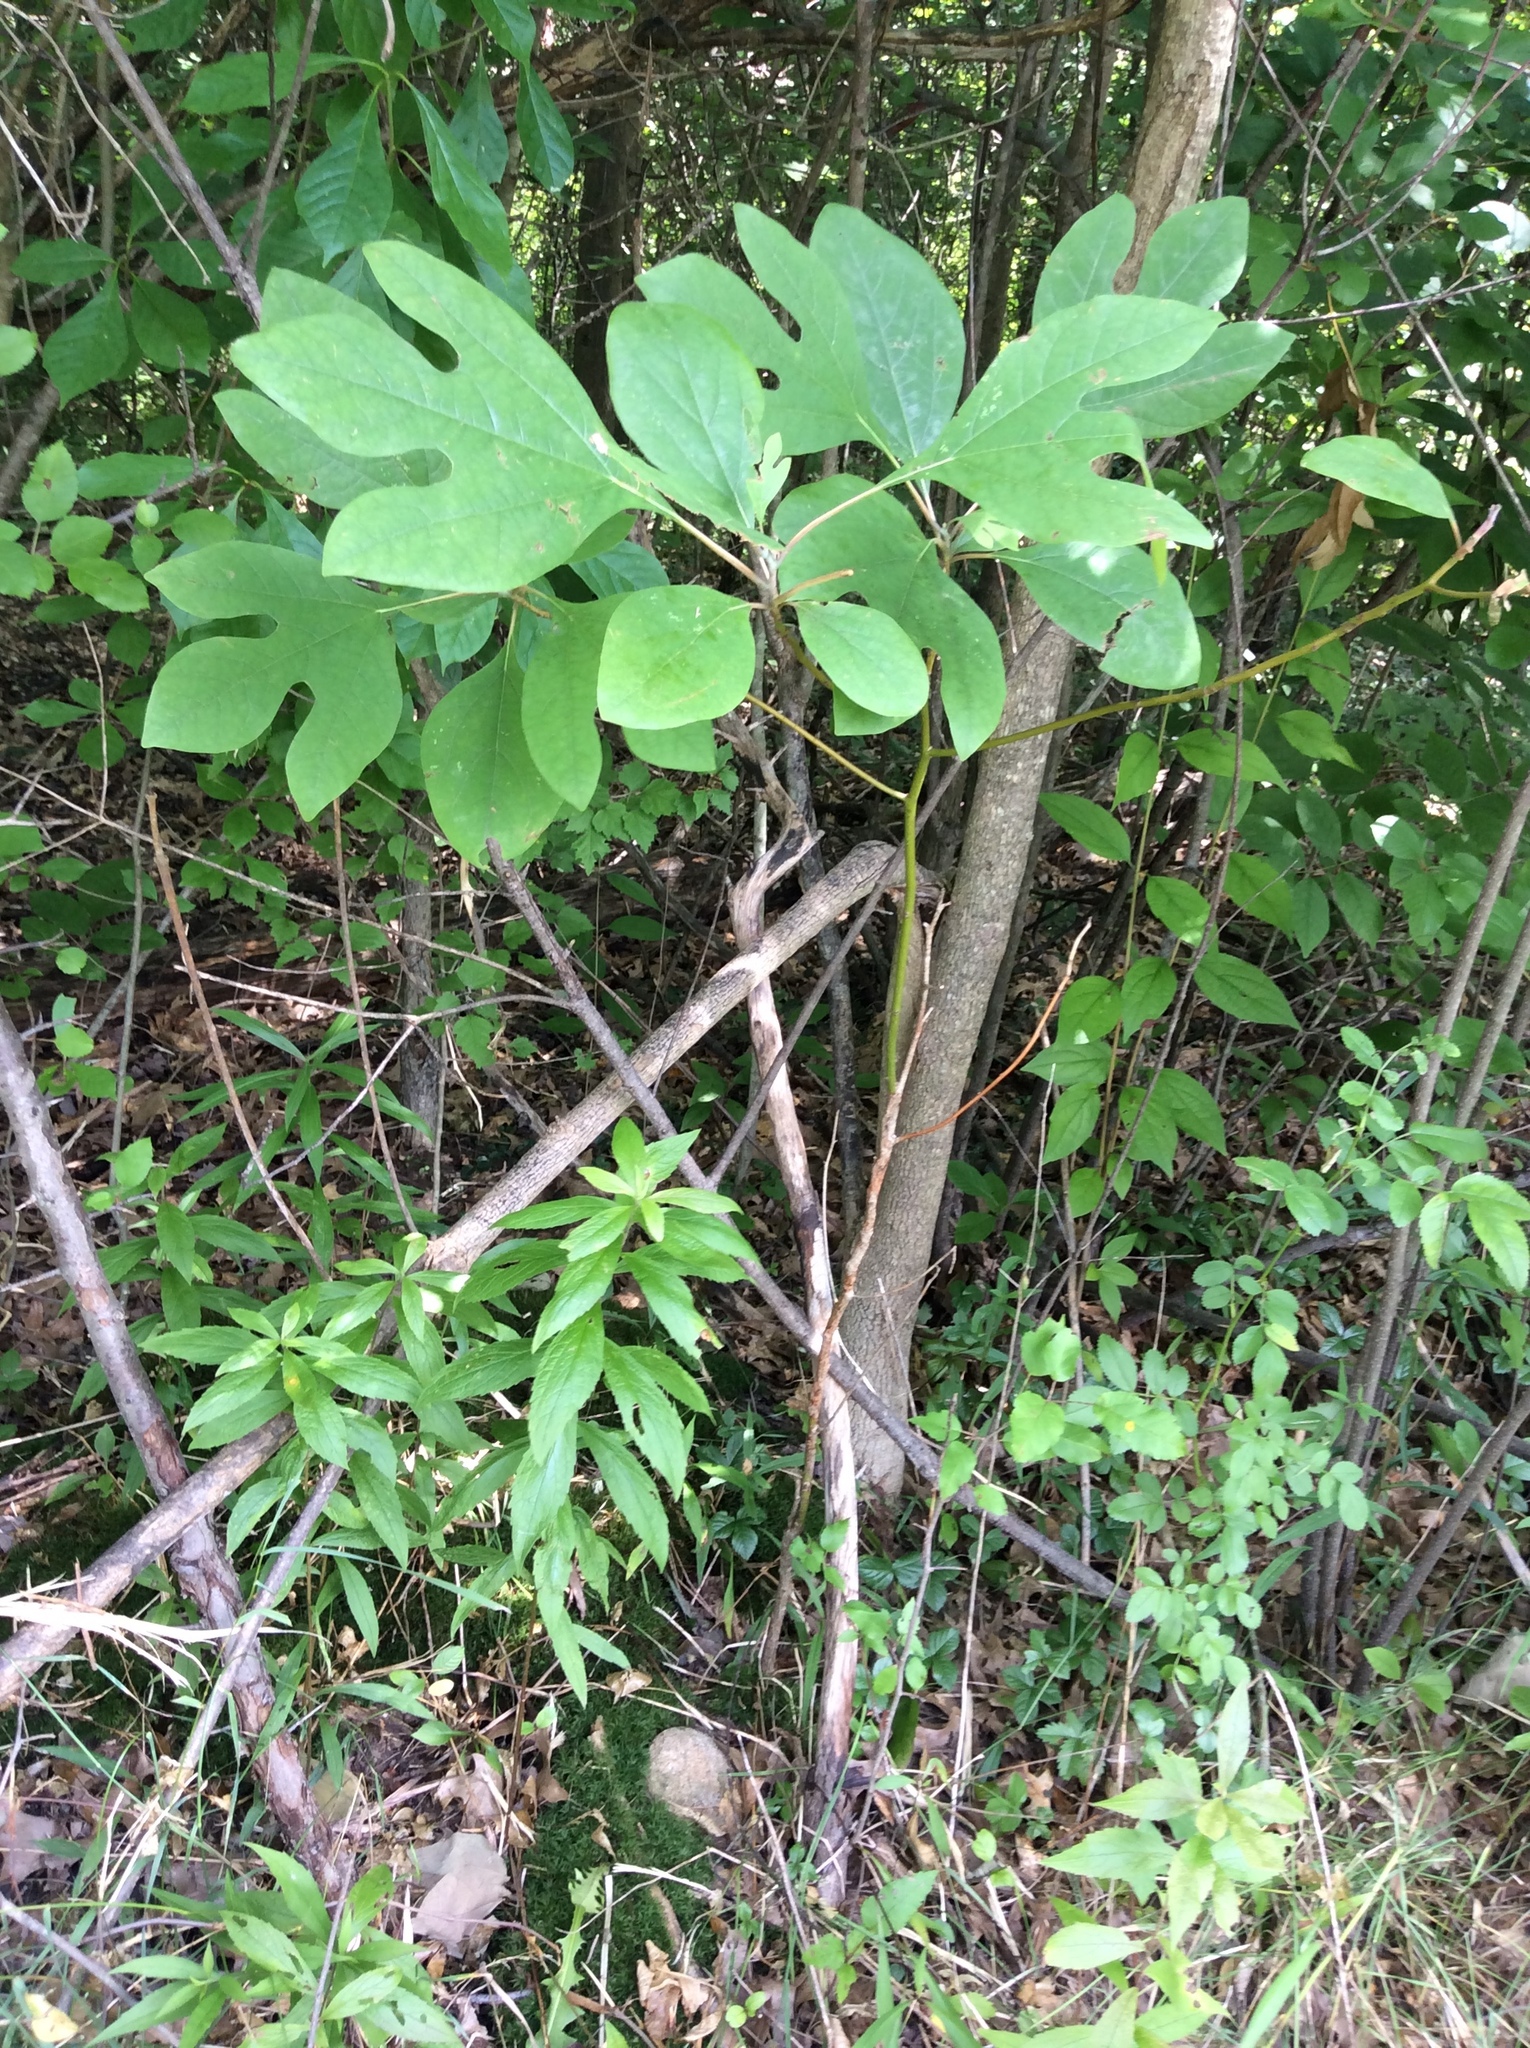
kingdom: Plantae
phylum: Tracheophyta
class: Magnoliopsida
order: Laurales
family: Lauraceae
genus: Sassafras
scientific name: Sassafras albidum
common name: Sassafras
